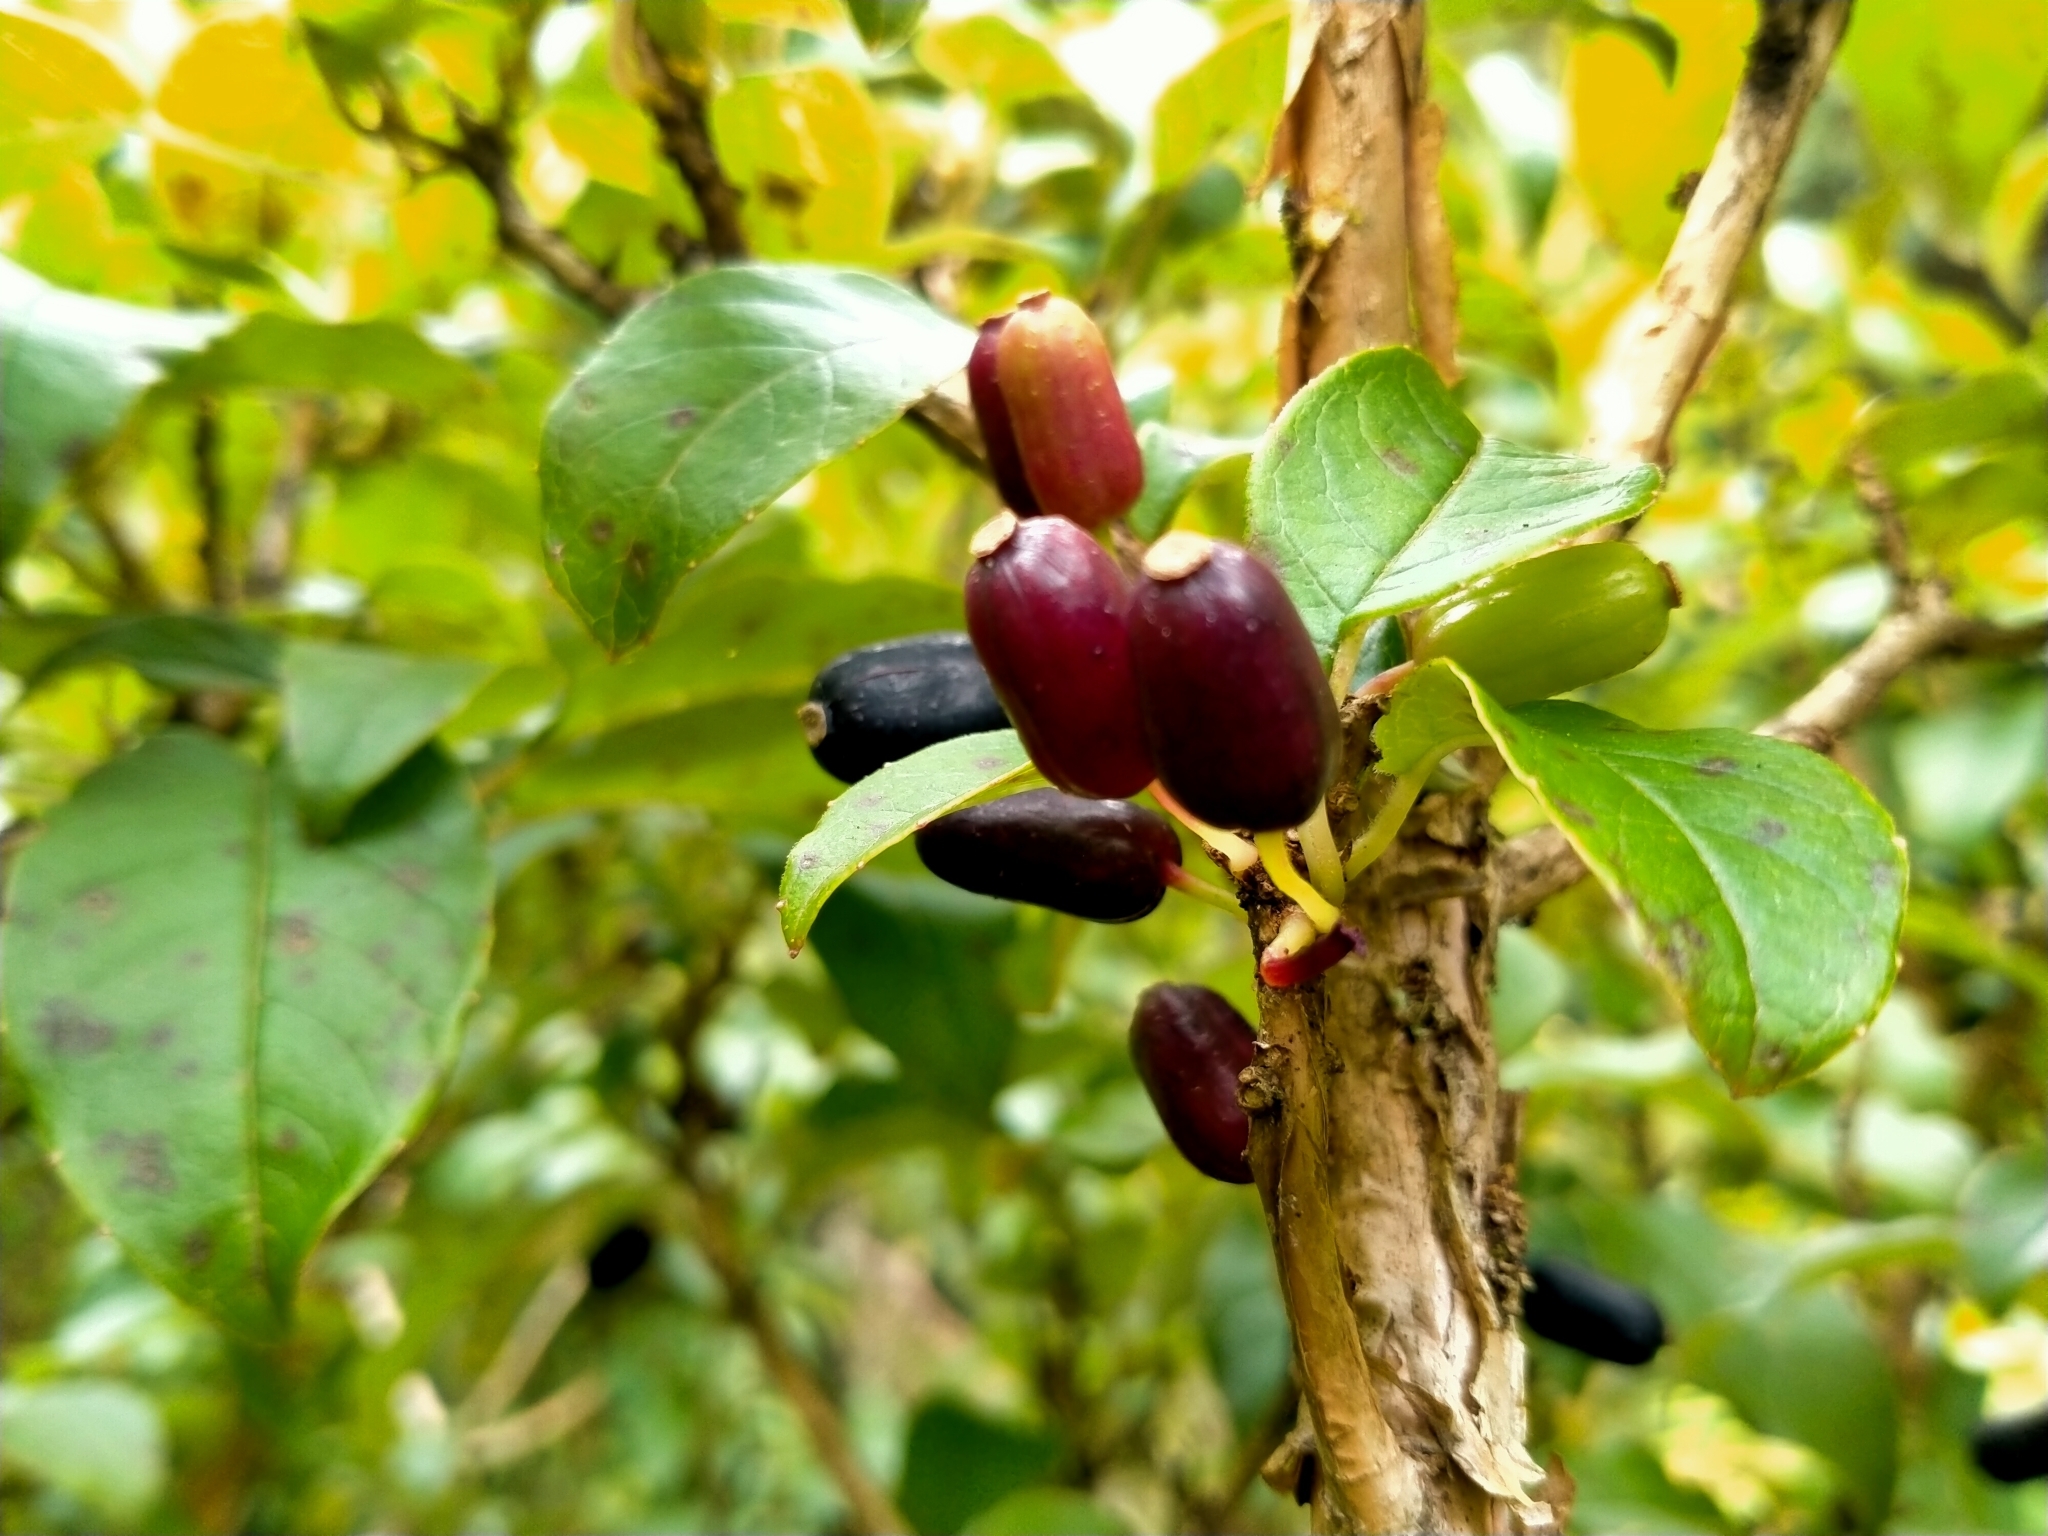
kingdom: Plantae
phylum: Tracheophyta
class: Magnoliopsida
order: Myrtales
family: Onagraceae
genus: Fuchsia
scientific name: Fuchsia excorticata
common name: Tree fuchsia
